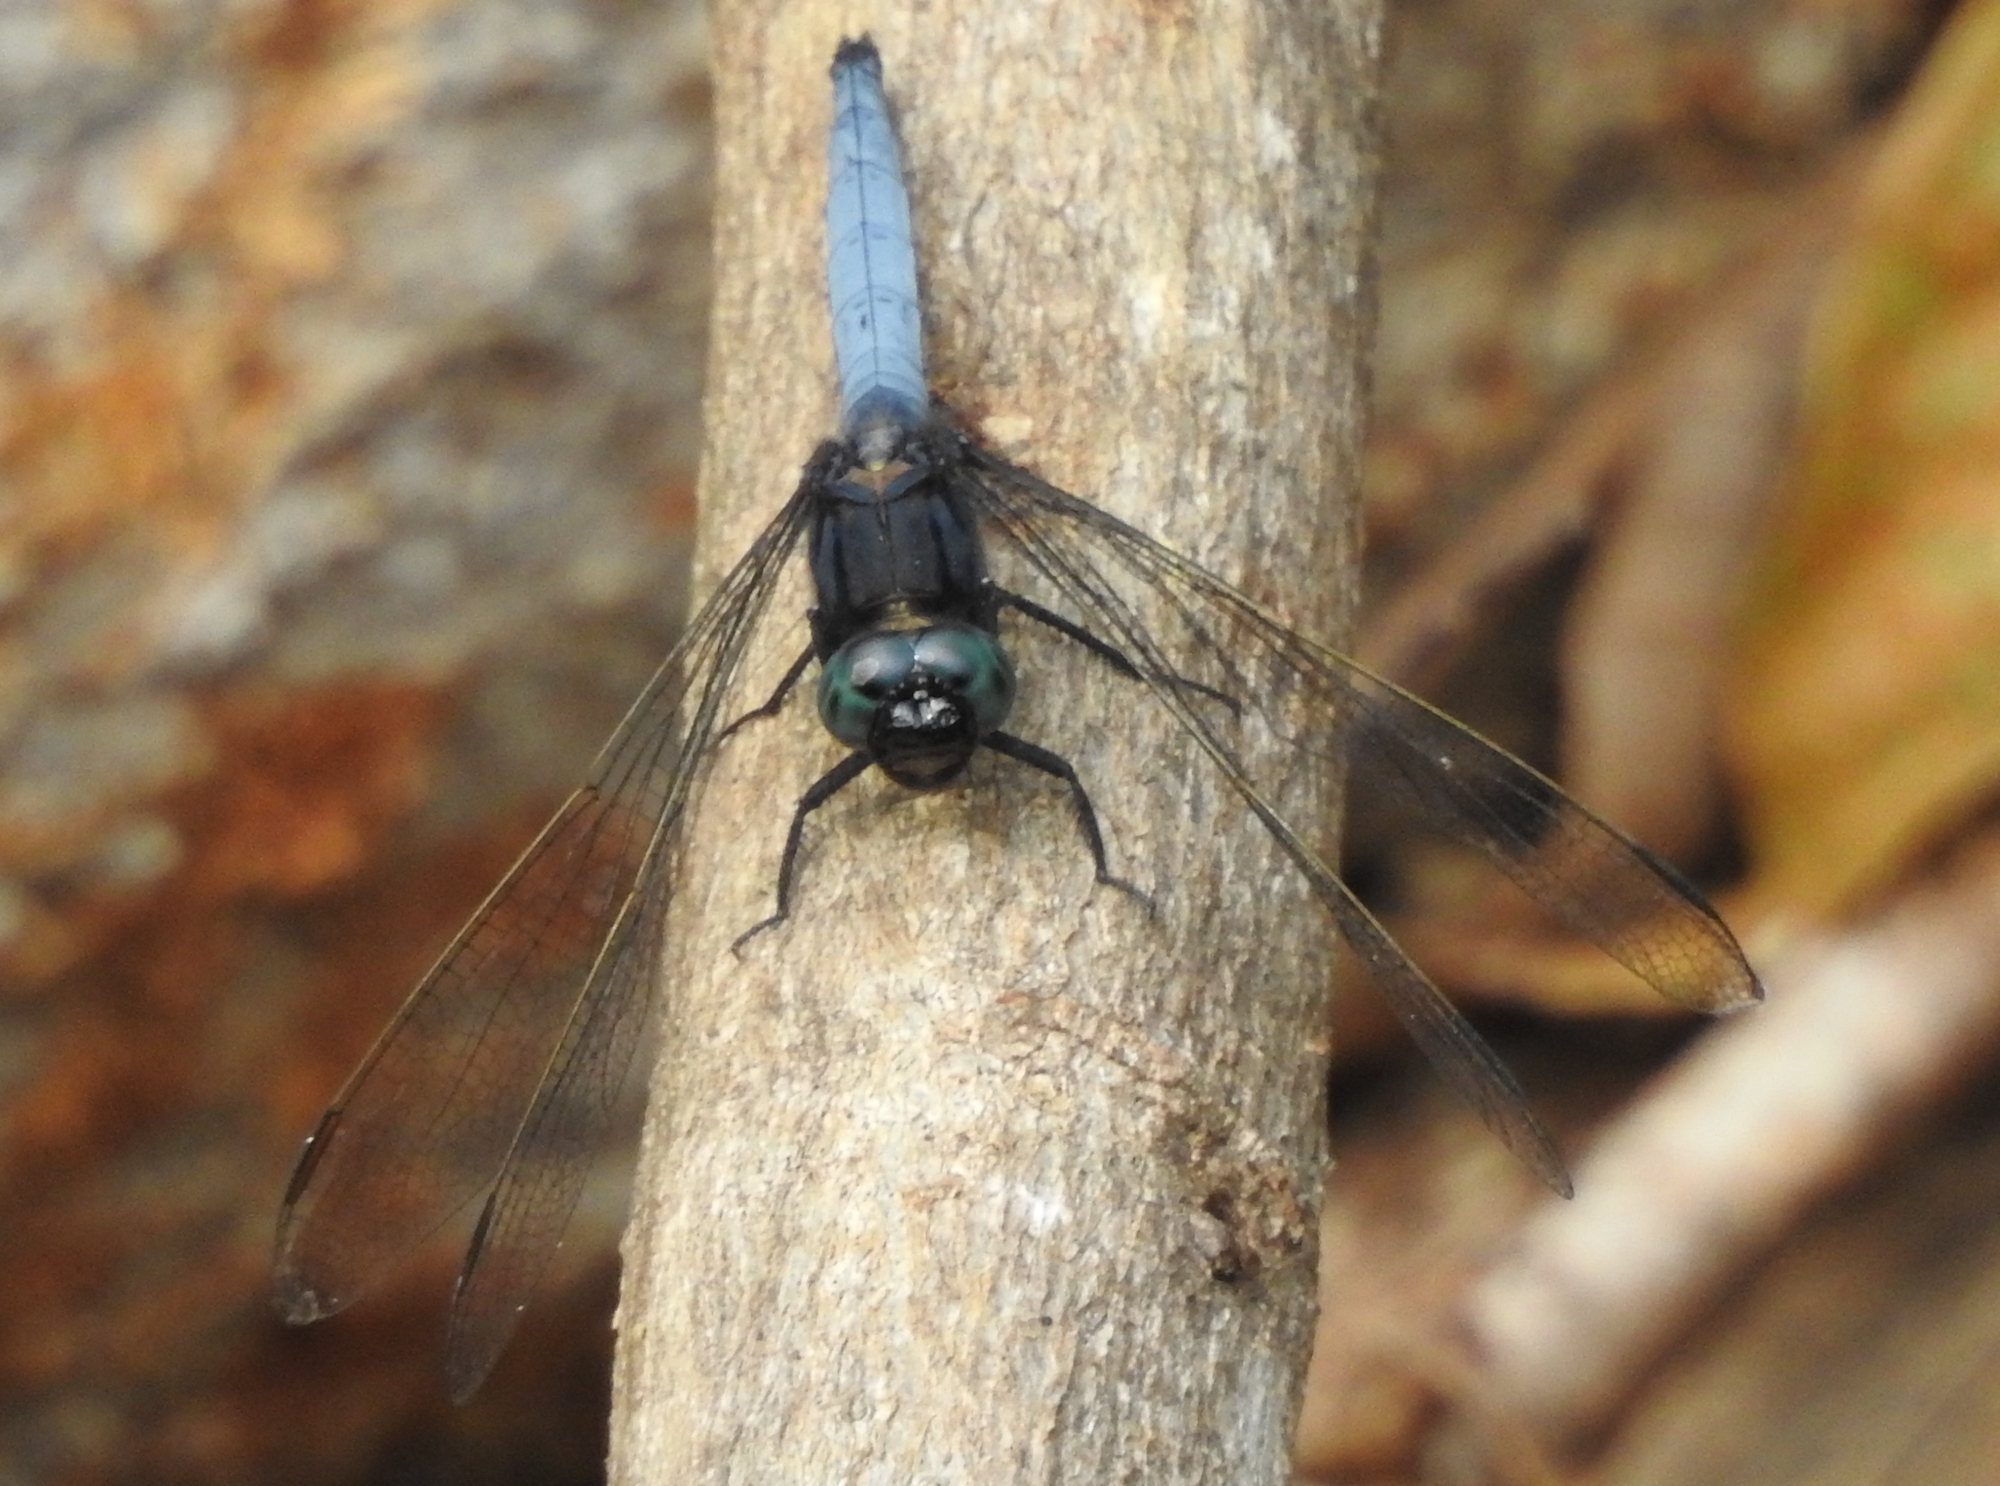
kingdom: Animalia
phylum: Arthropoda
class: Insecta
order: Odonata
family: Libellulidae
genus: Orthetrum
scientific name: Orthetrum glaucum
